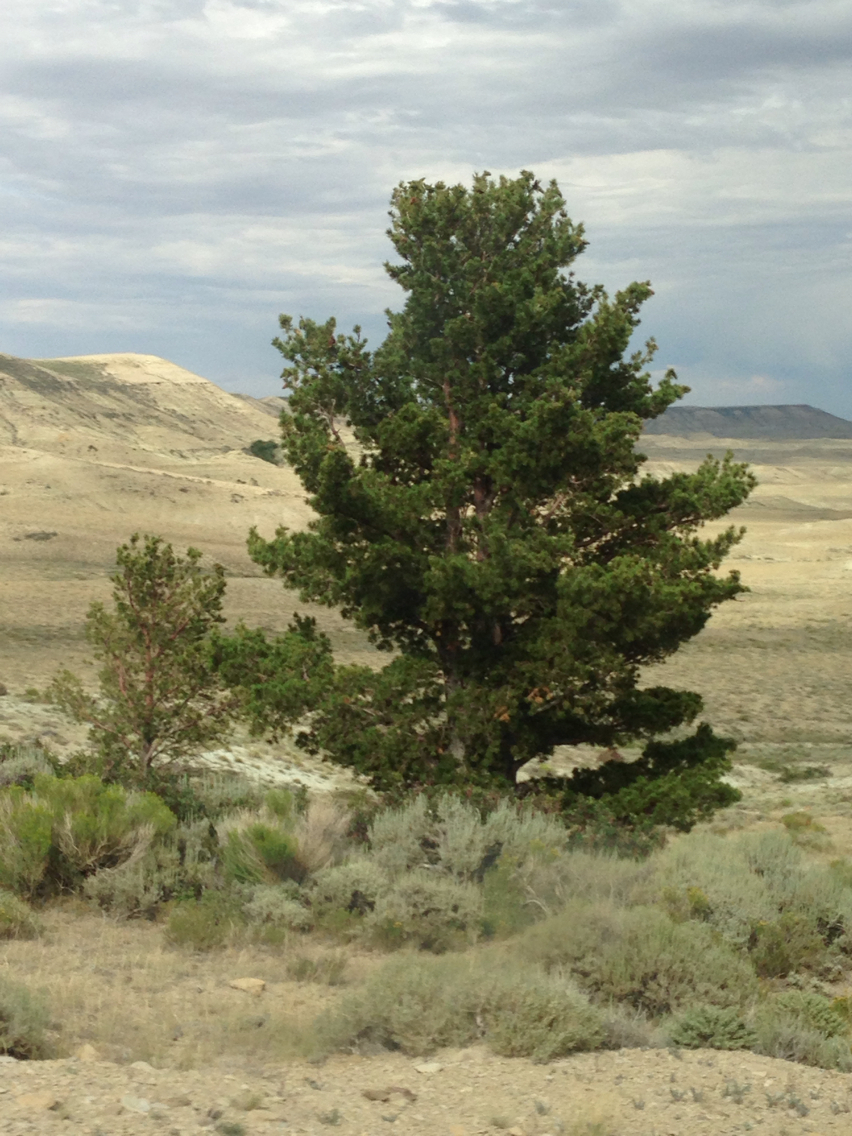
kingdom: Plantae
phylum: Tracheophyta
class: Pinopsida
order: Pinales
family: Pinaceae
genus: Pinus
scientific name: Pinus flexilis
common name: Limber pine
